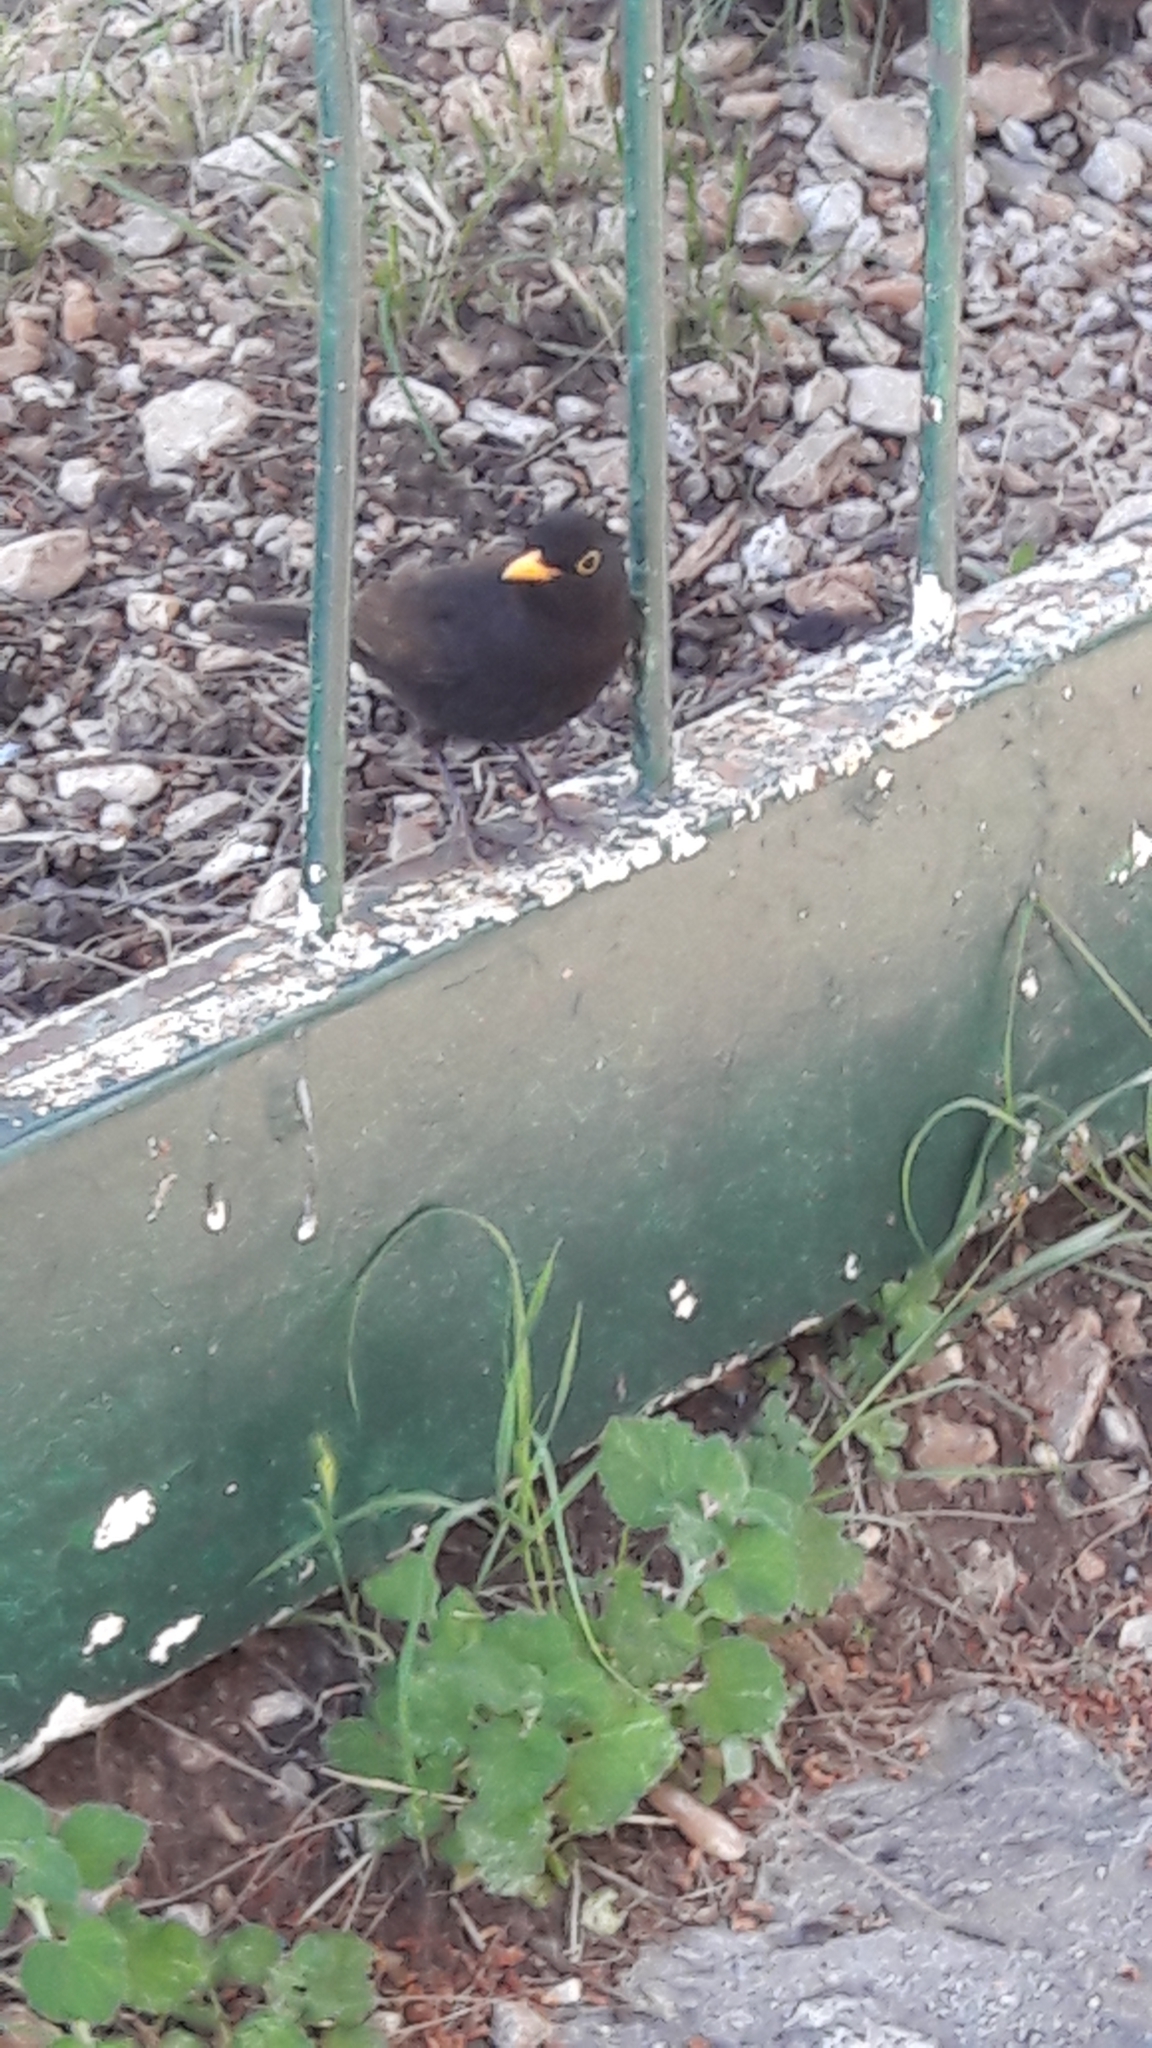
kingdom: Animalia
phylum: Chordata
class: Aves
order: Passeriformes
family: Turdidae
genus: Turdus
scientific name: Turdus merula
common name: Common blackbird
